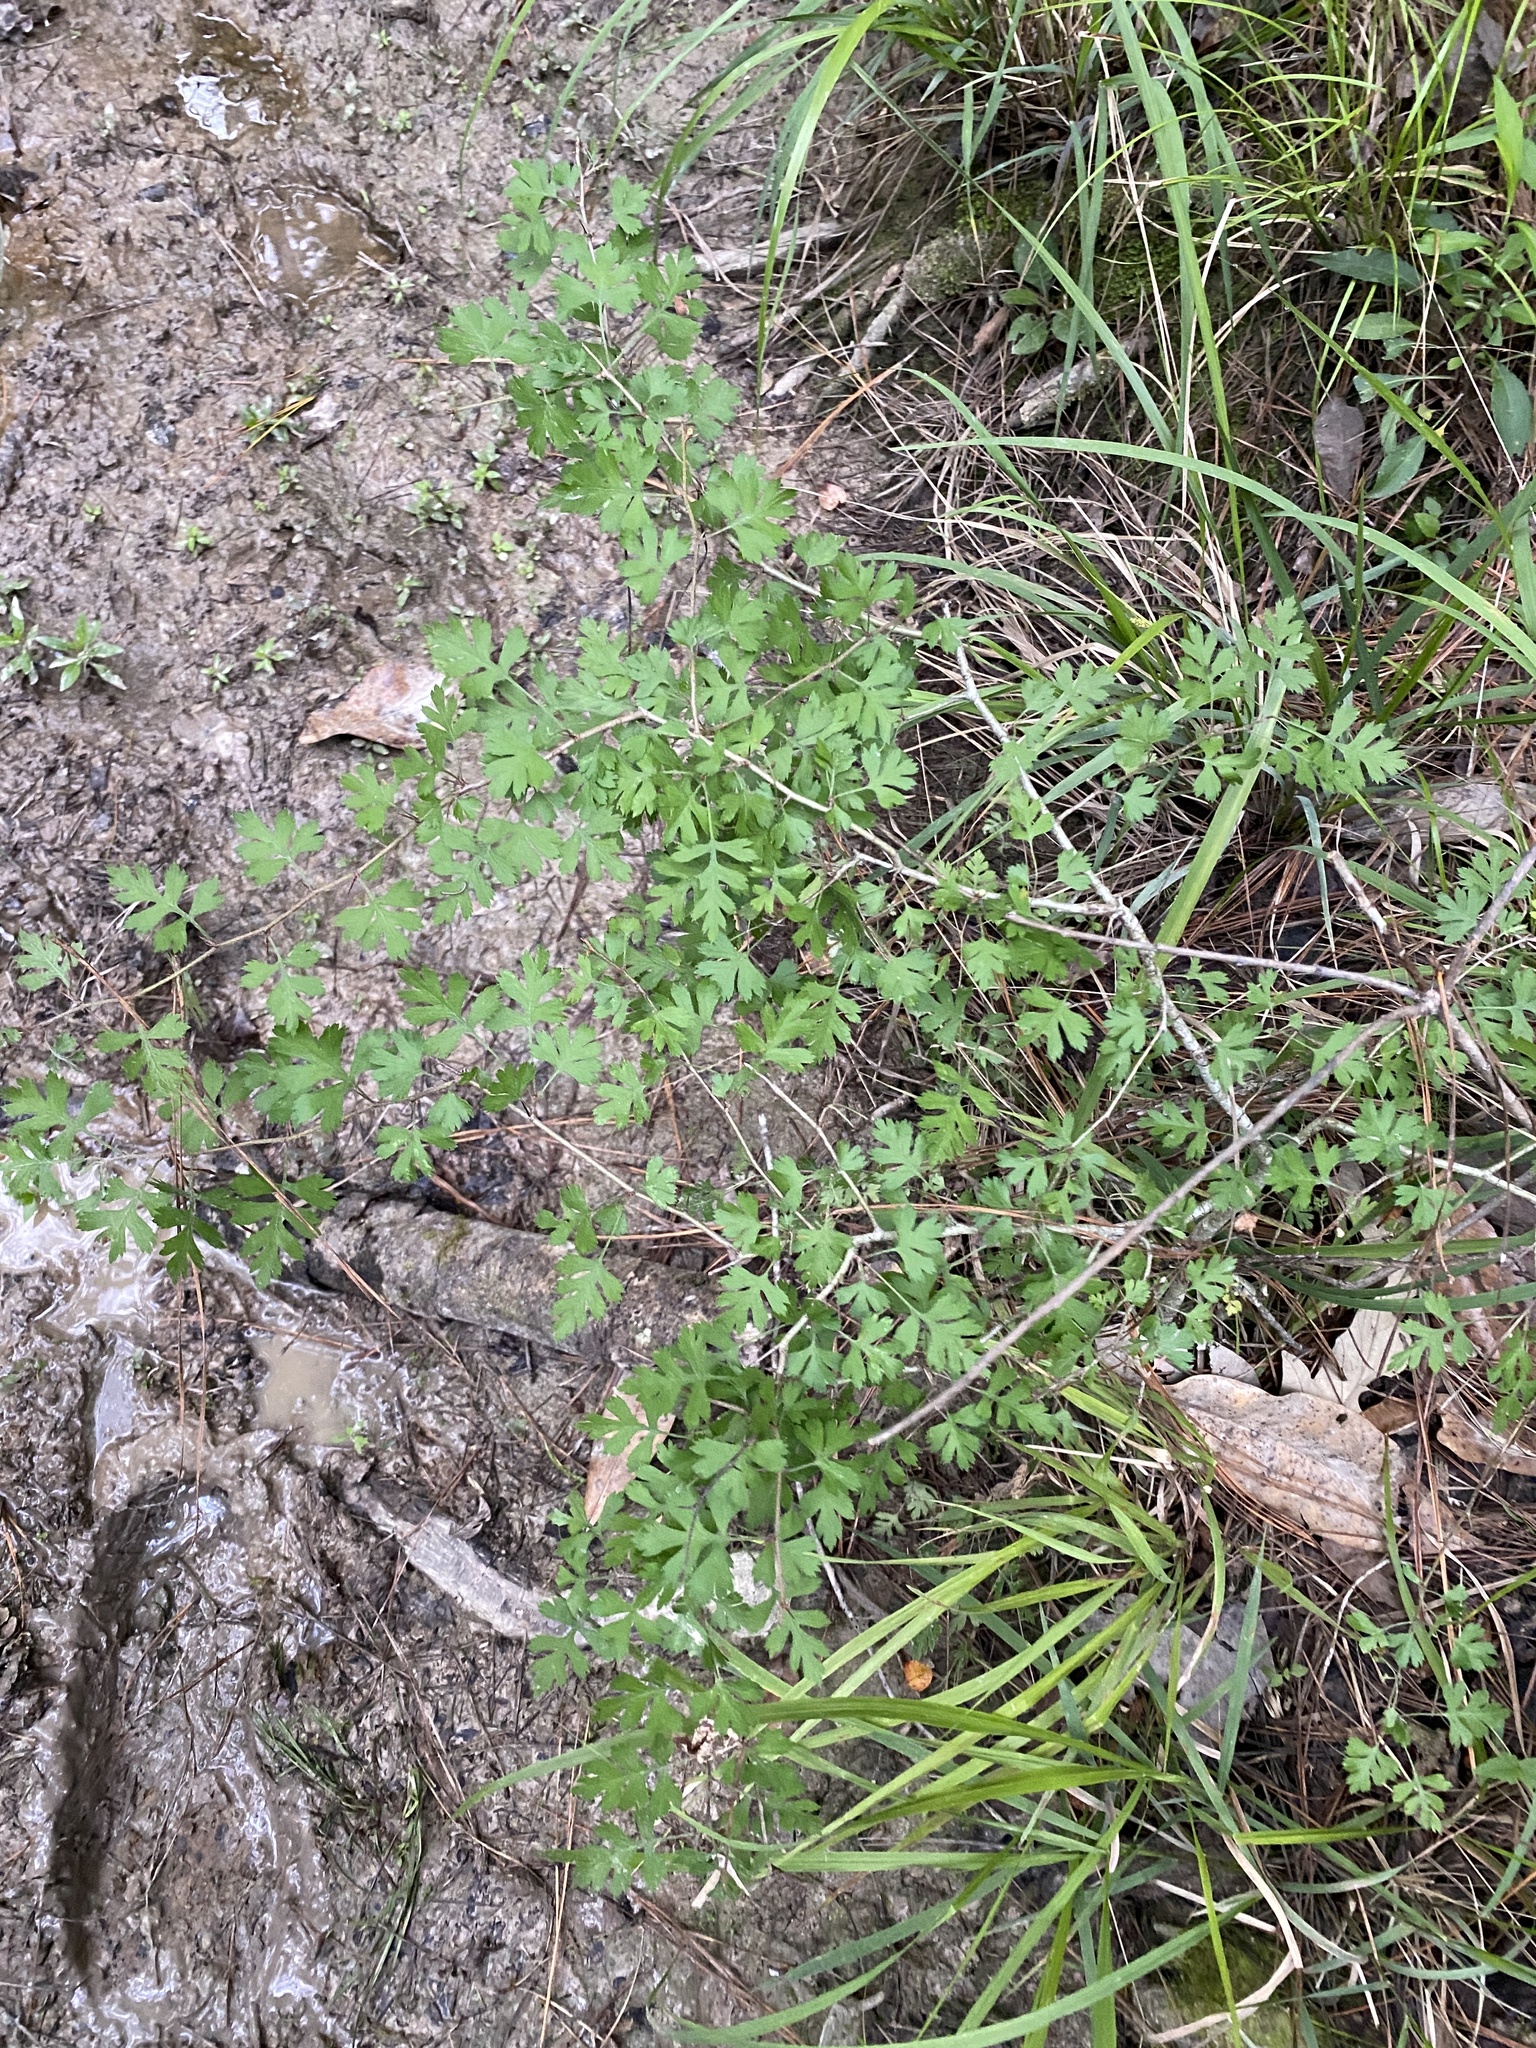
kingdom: Plantae
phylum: Tracheophyta
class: Magnoliopsida
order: Rosales
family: Rosaceae
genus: Crataegus
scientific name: Crataegus marshallii
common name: Parsley-hawthorn
